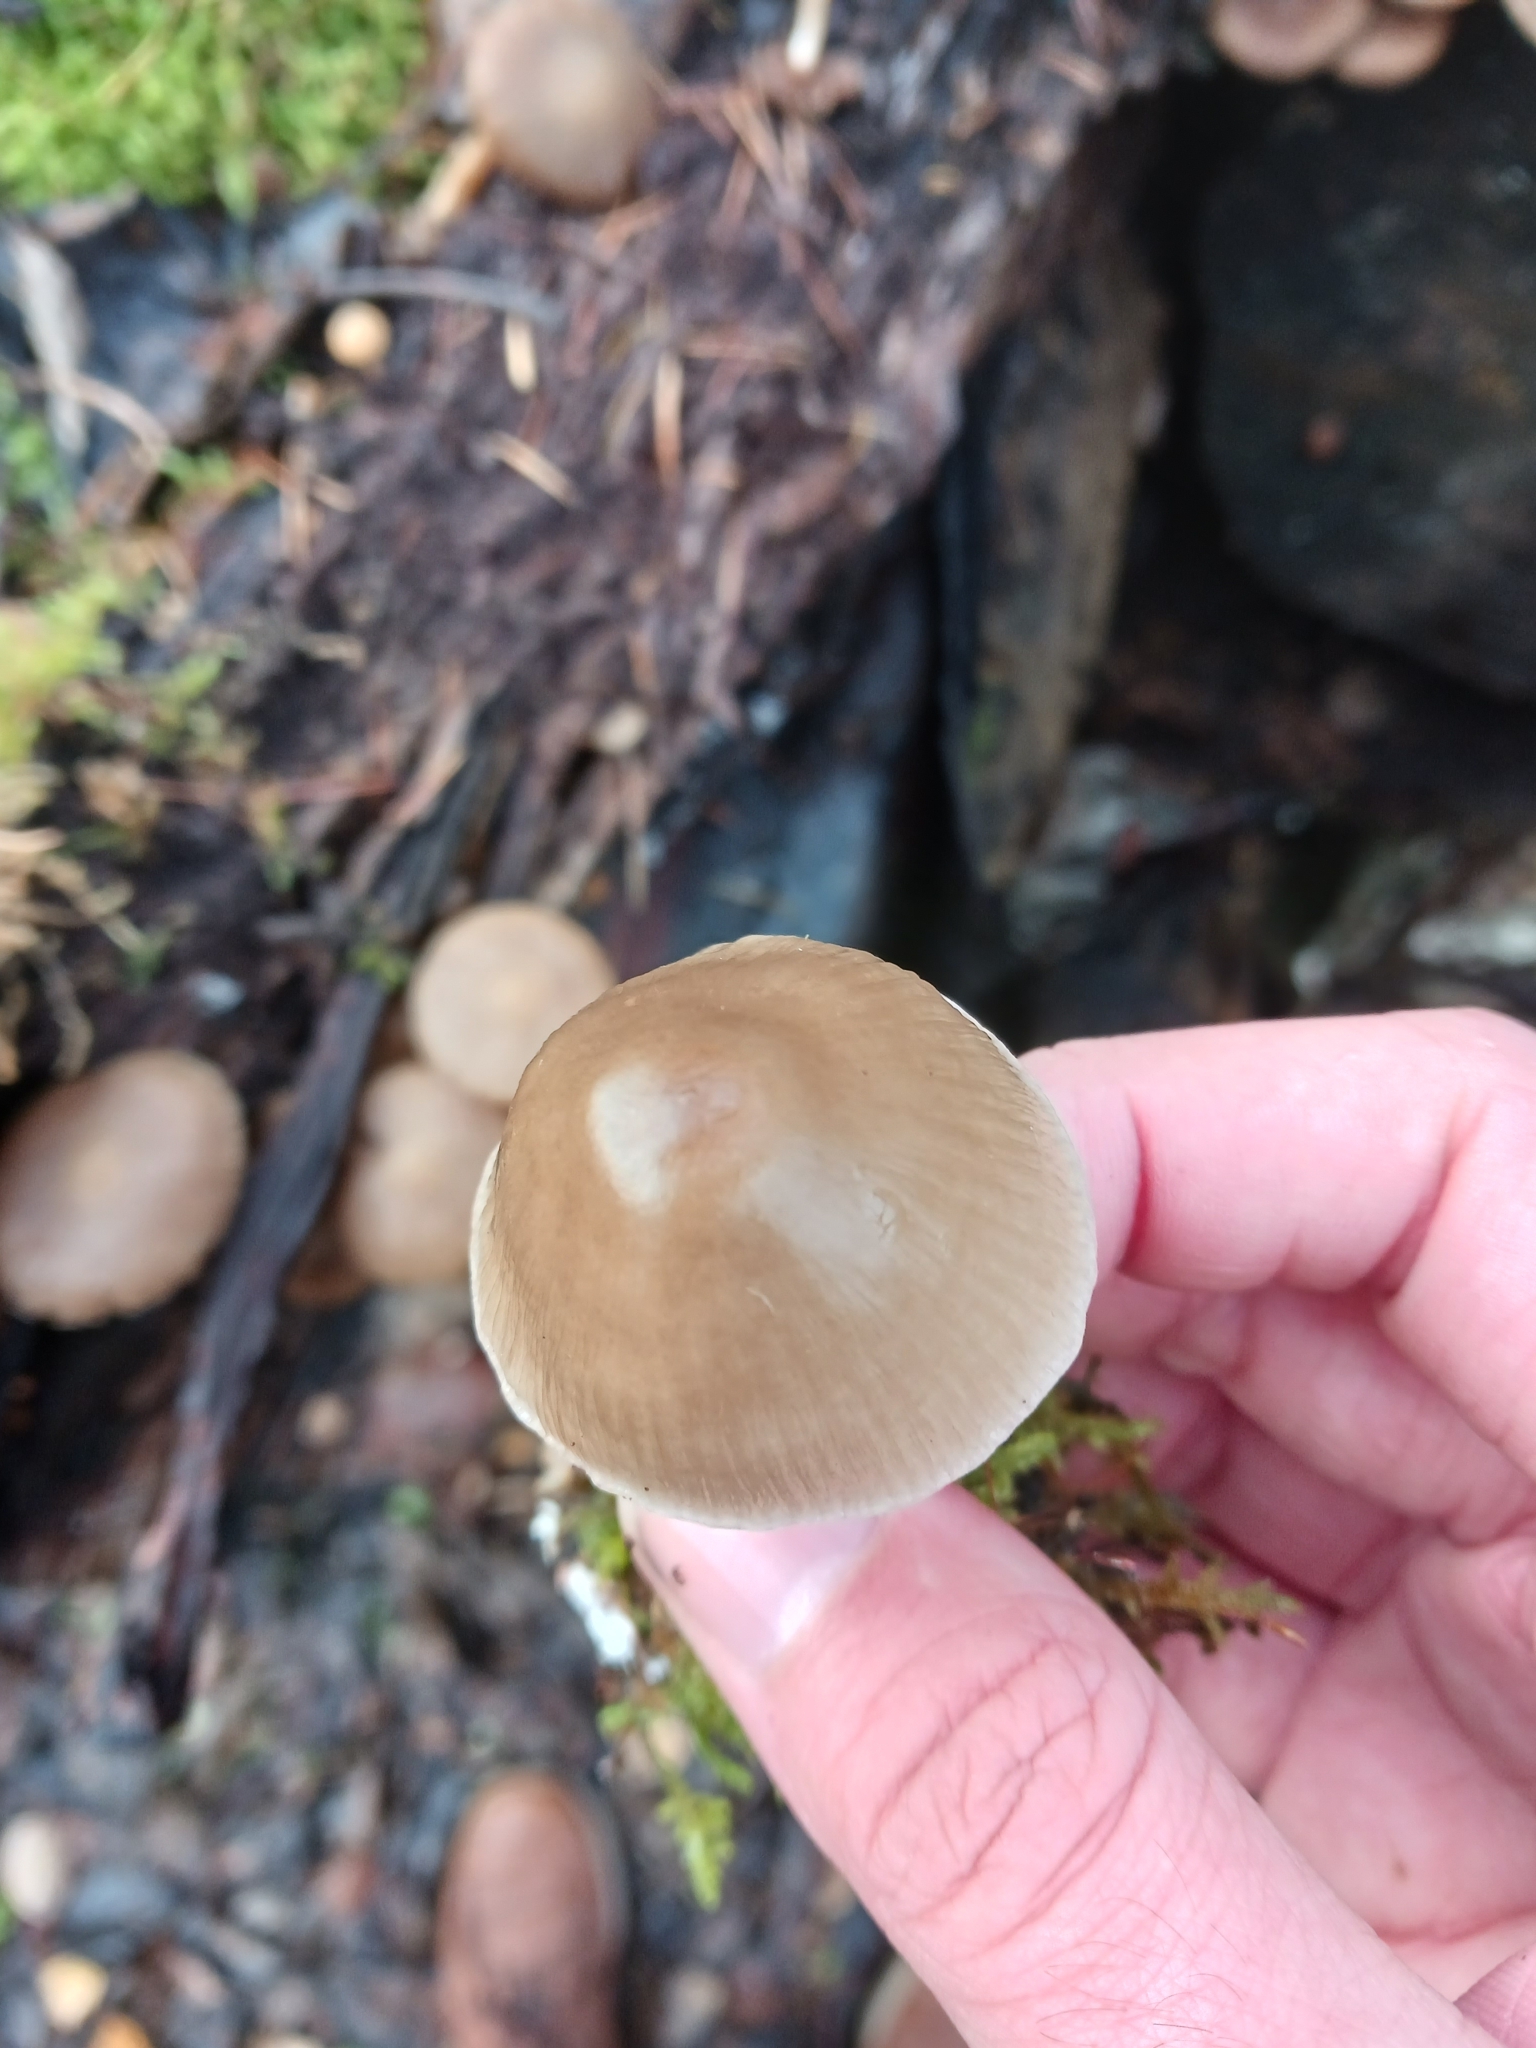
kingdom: Fungi
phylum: Basidiomycota
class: Agaricomycetes
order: Agaricales
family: Mycenaceae
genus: Mycena
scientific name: Mycena galericulata
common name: Bonnet mycena
